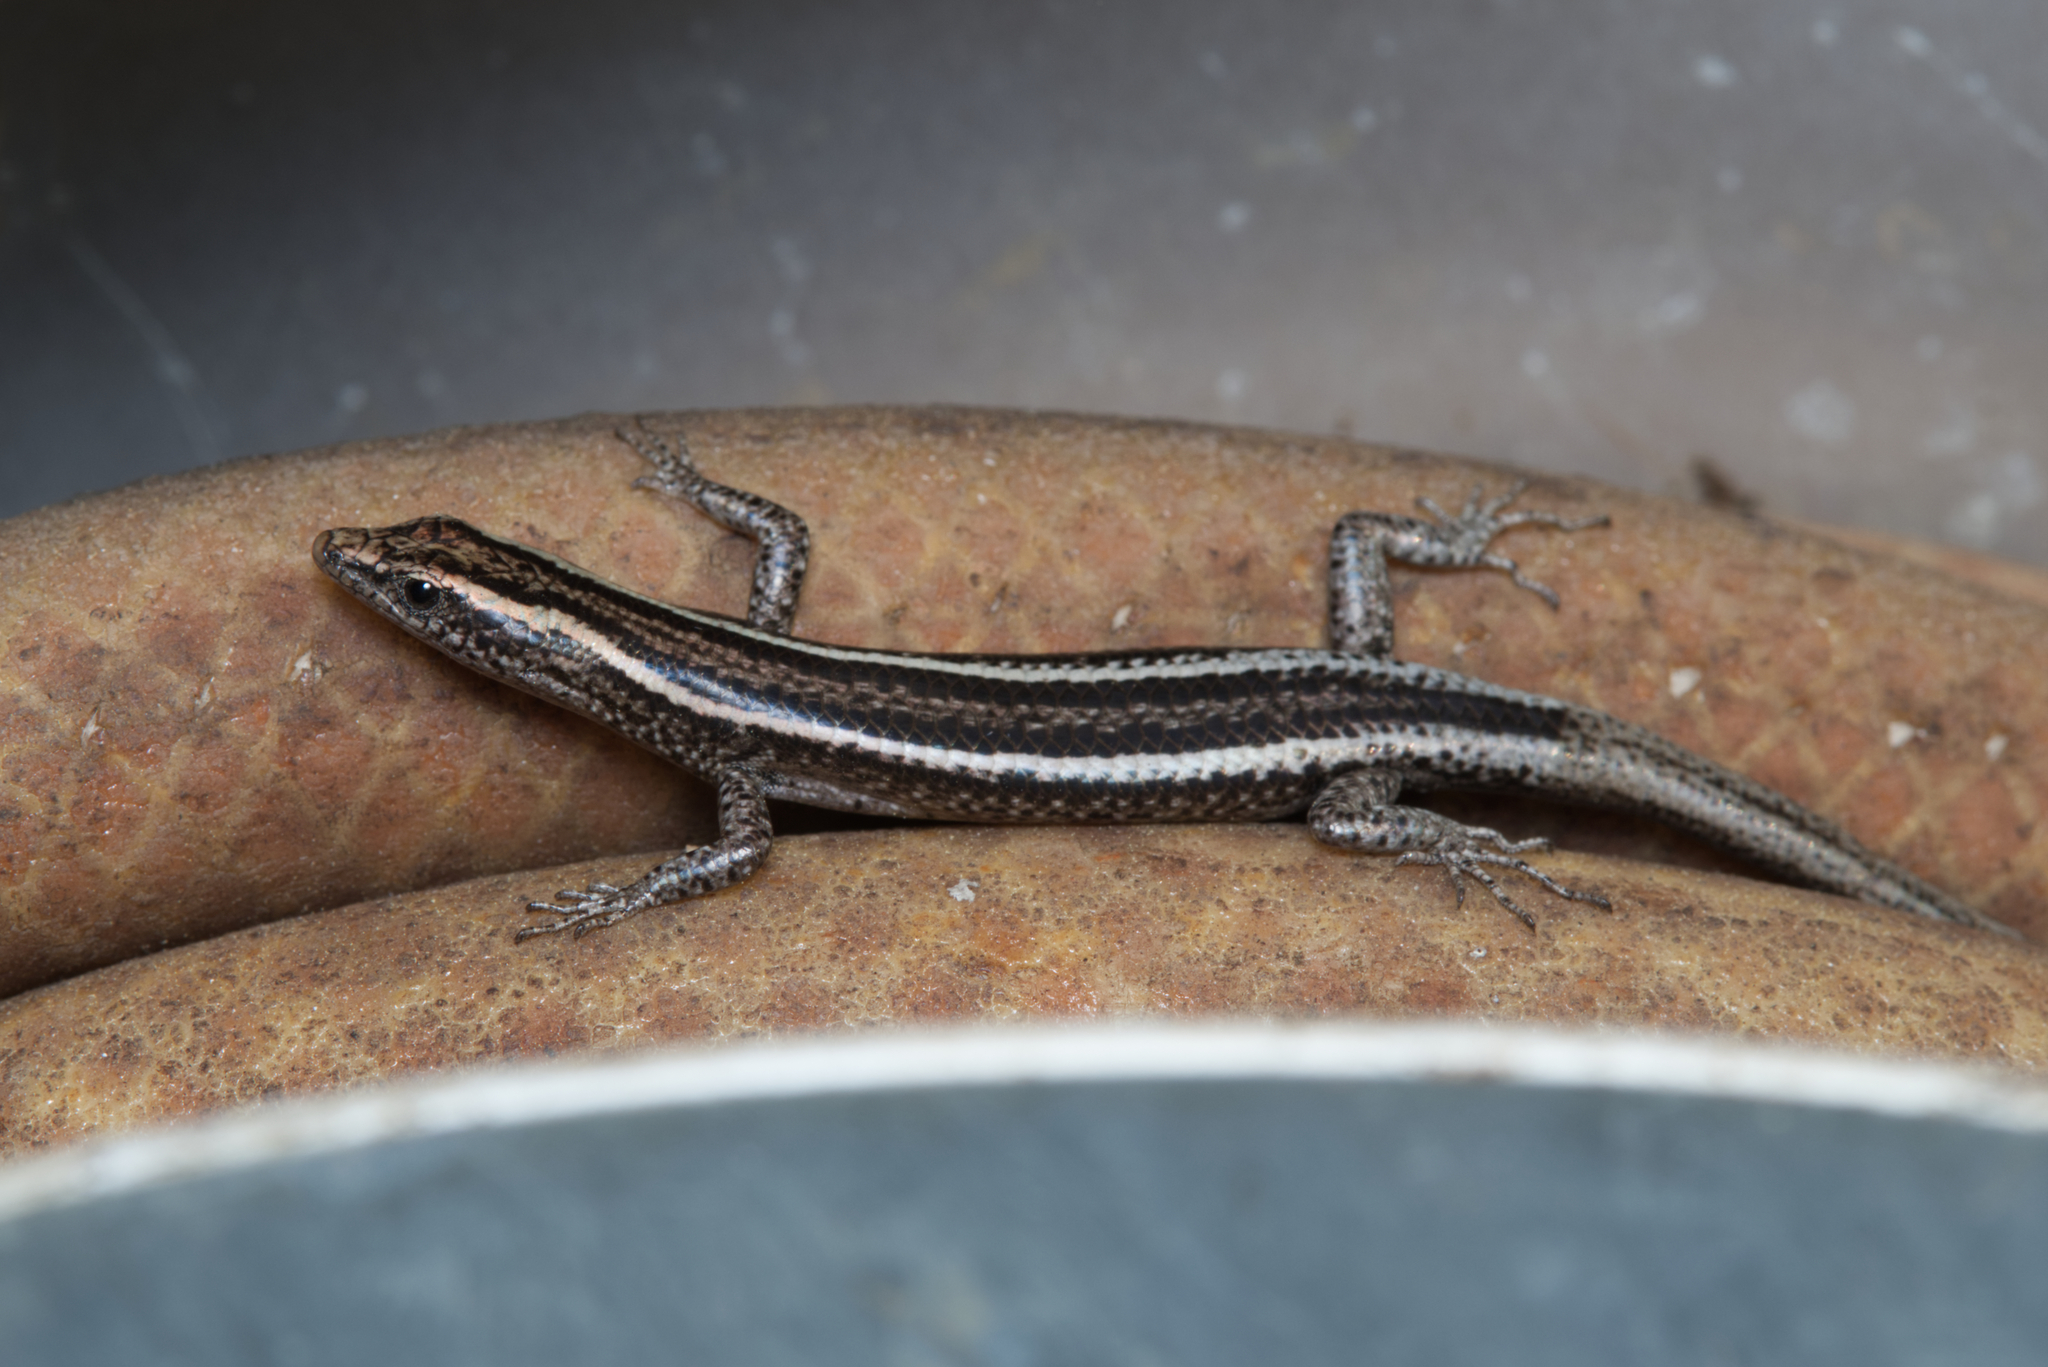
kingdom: Animalia
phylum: Chordata
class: Squamata
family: Scincidae
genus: Cryptoblepharus
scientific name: Cryptoblepharus pulcher
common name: Elegant snake-eyed skink
